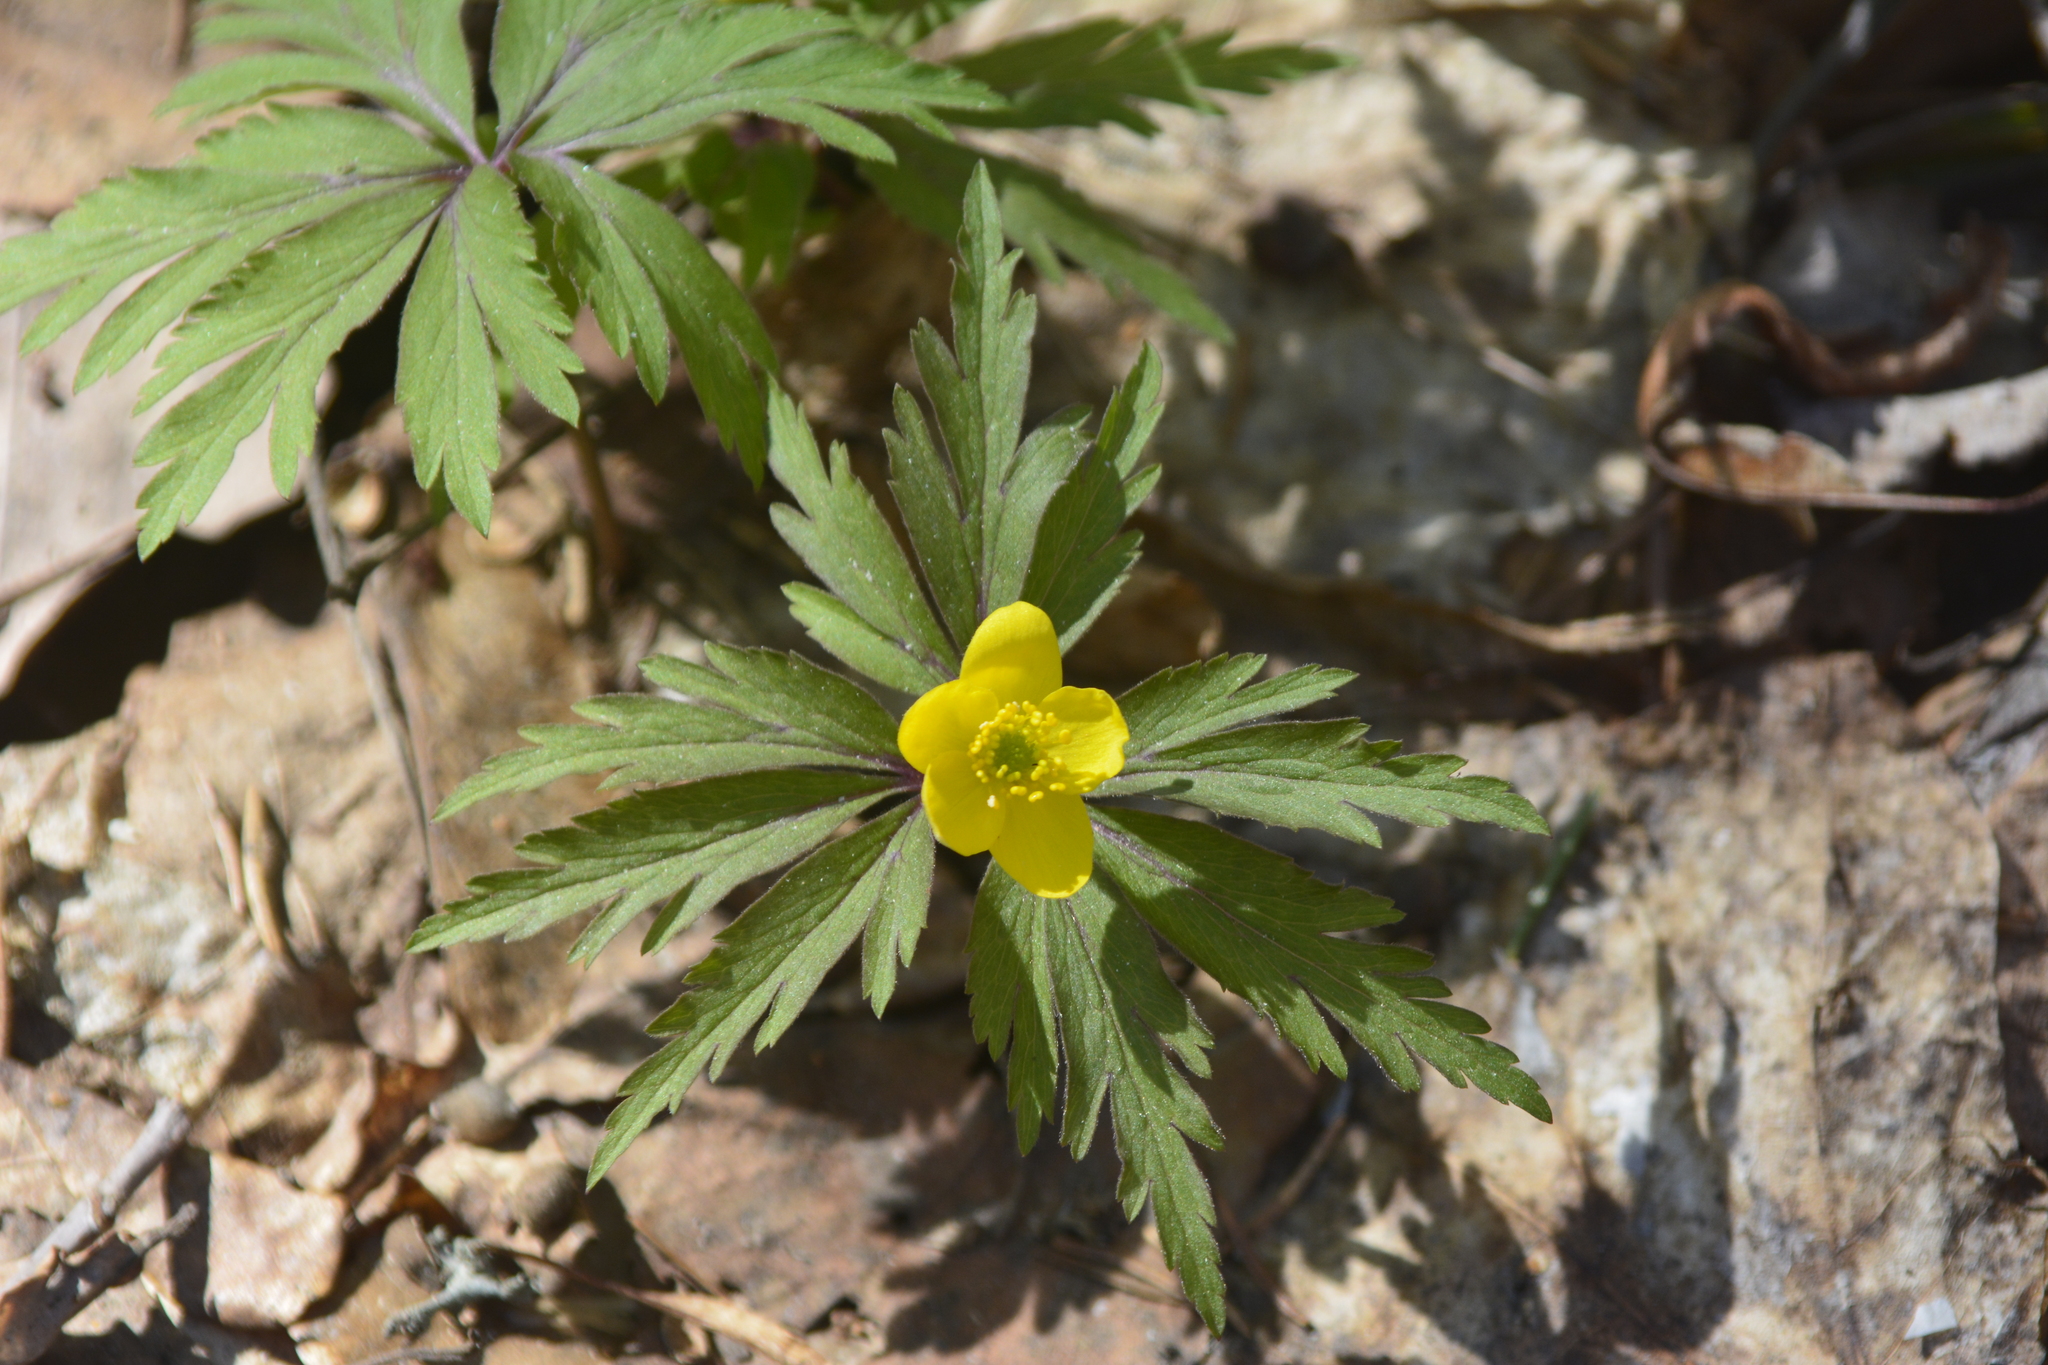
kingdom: Plantae
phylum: Tracheophyta
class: Magnoliopsida
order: Ranunculales
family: Ranunculaceae
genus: Anemone
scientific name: Anemone ranunculoides
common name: Yellow anemone
